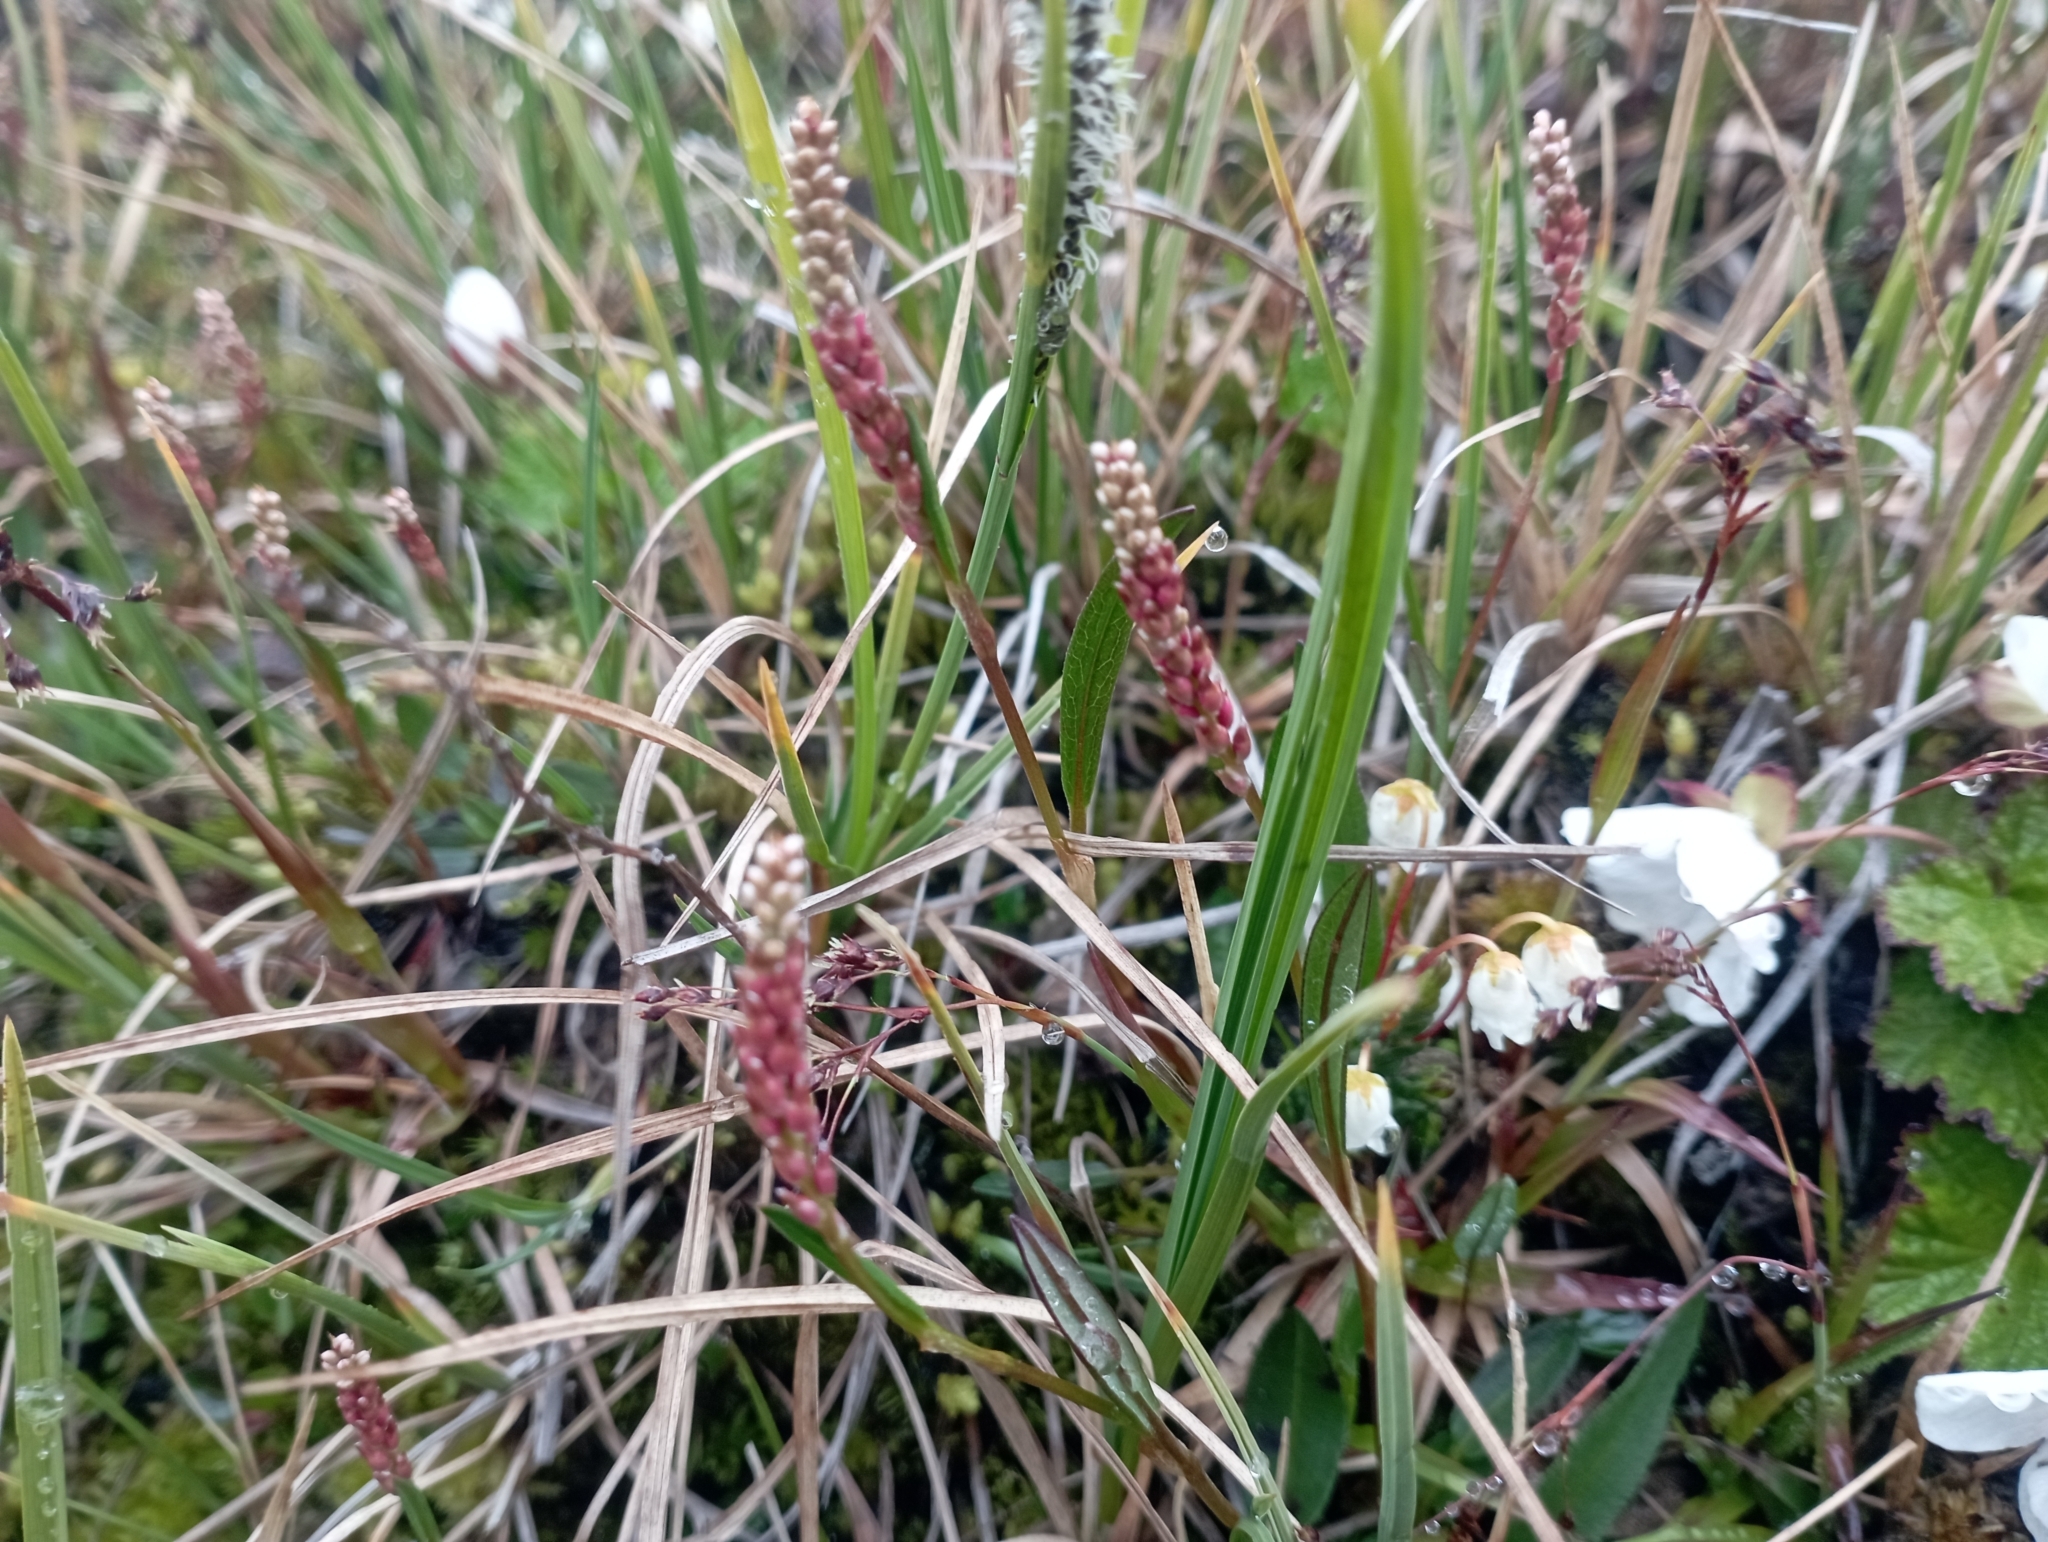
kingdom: Plantae
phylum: Tracheophyta
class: Magnoliopsida
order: Caryophyllales
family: Polygonaceae
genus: Bistorta
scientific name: Bistorta vivipara
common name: Alpine bistort
